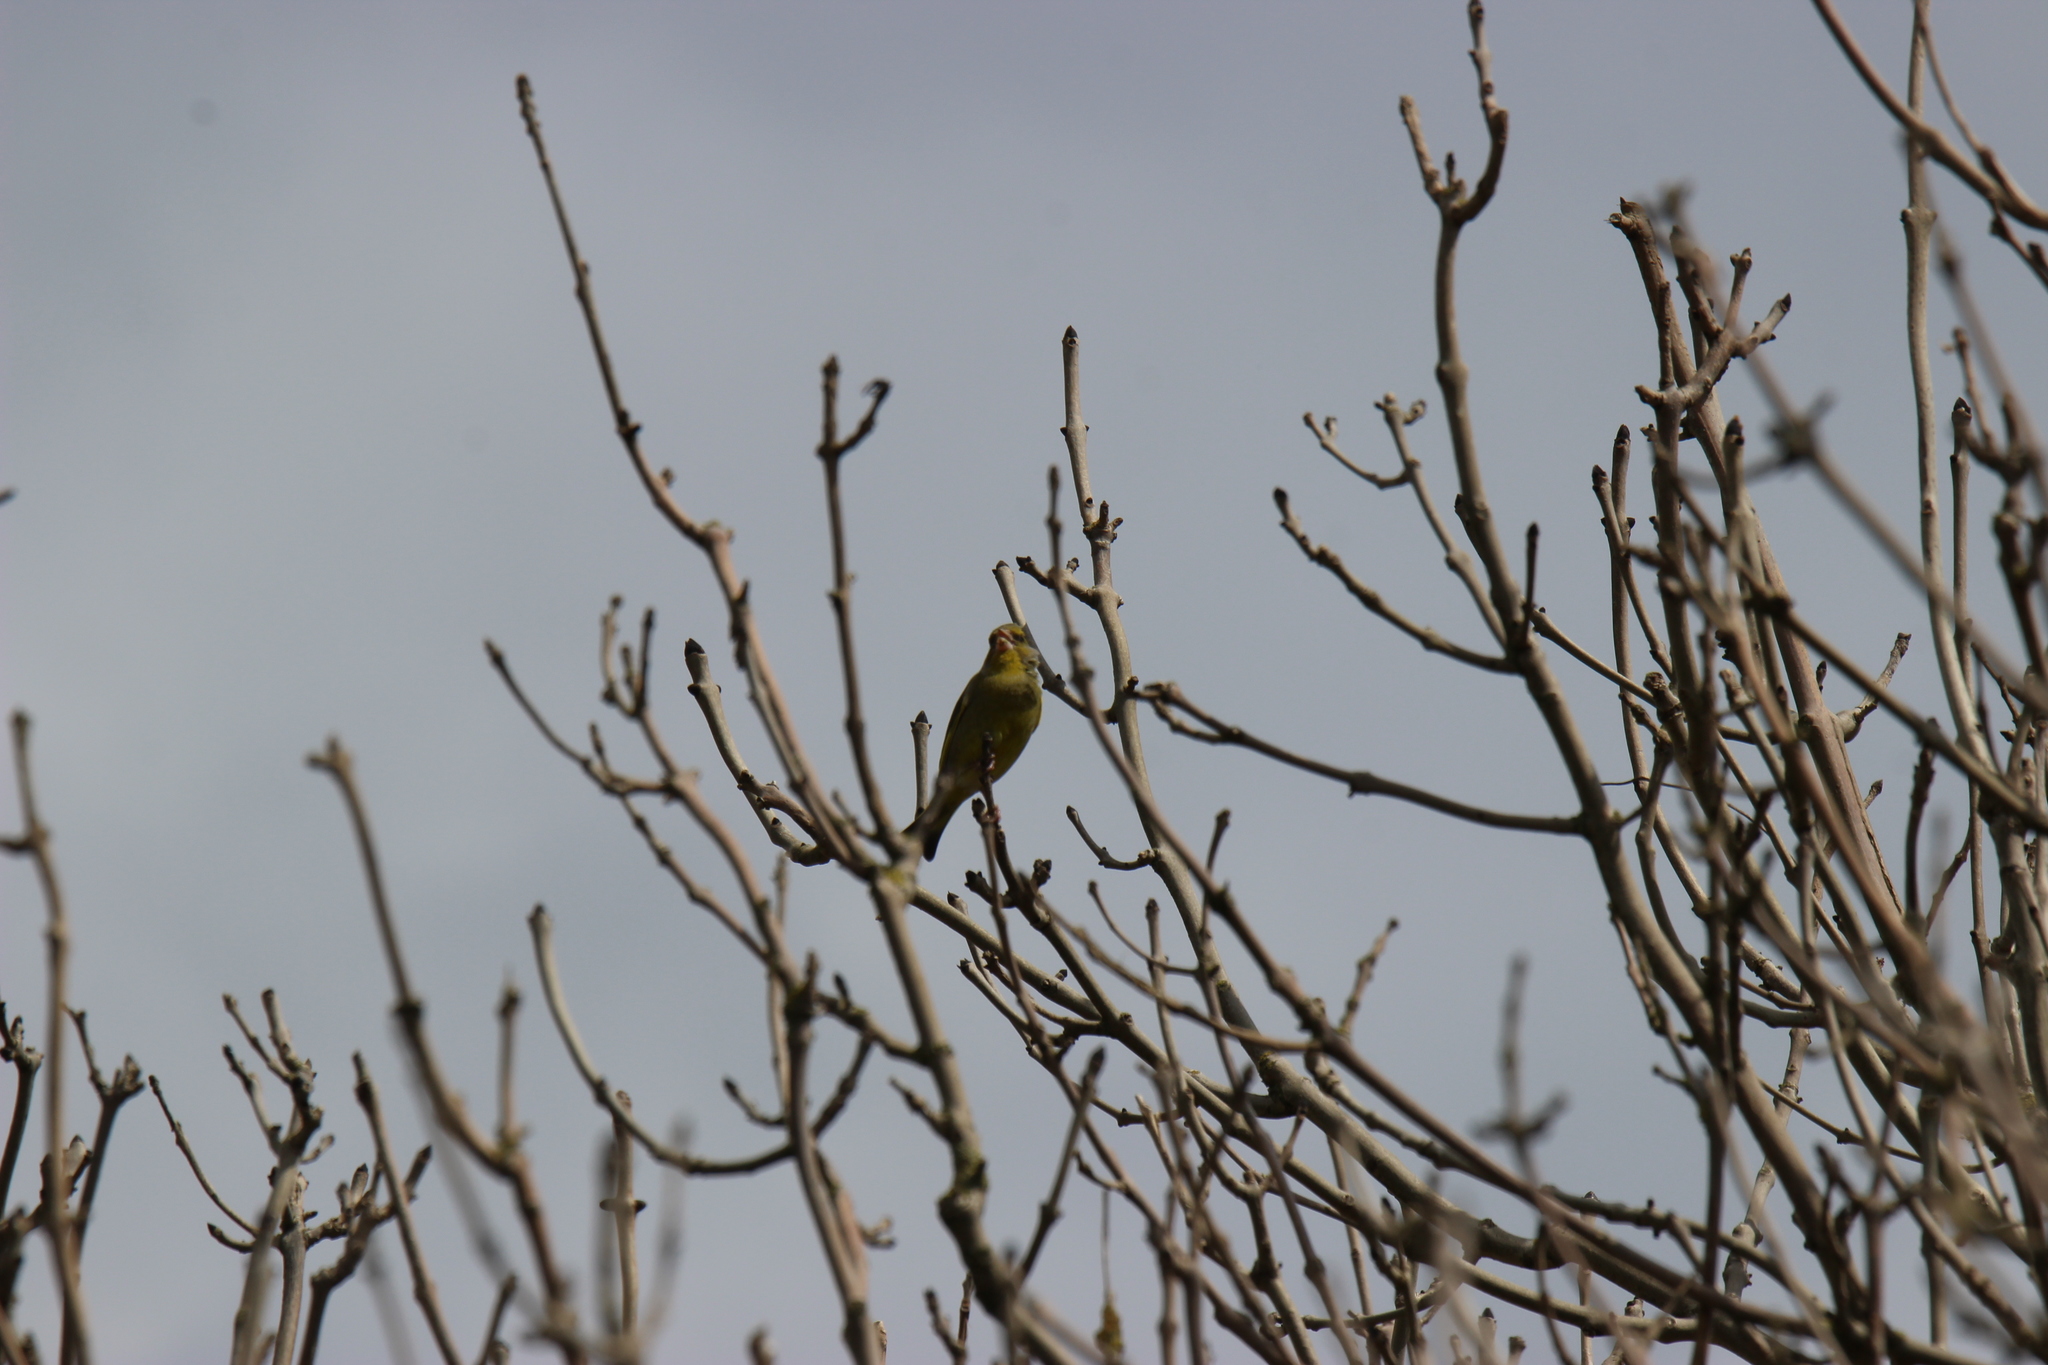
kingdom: Plantae
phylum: Tracheophyta
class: Liliopsida
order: Poales
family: Poaceae
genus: Chloris
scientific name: Chloris chloris
